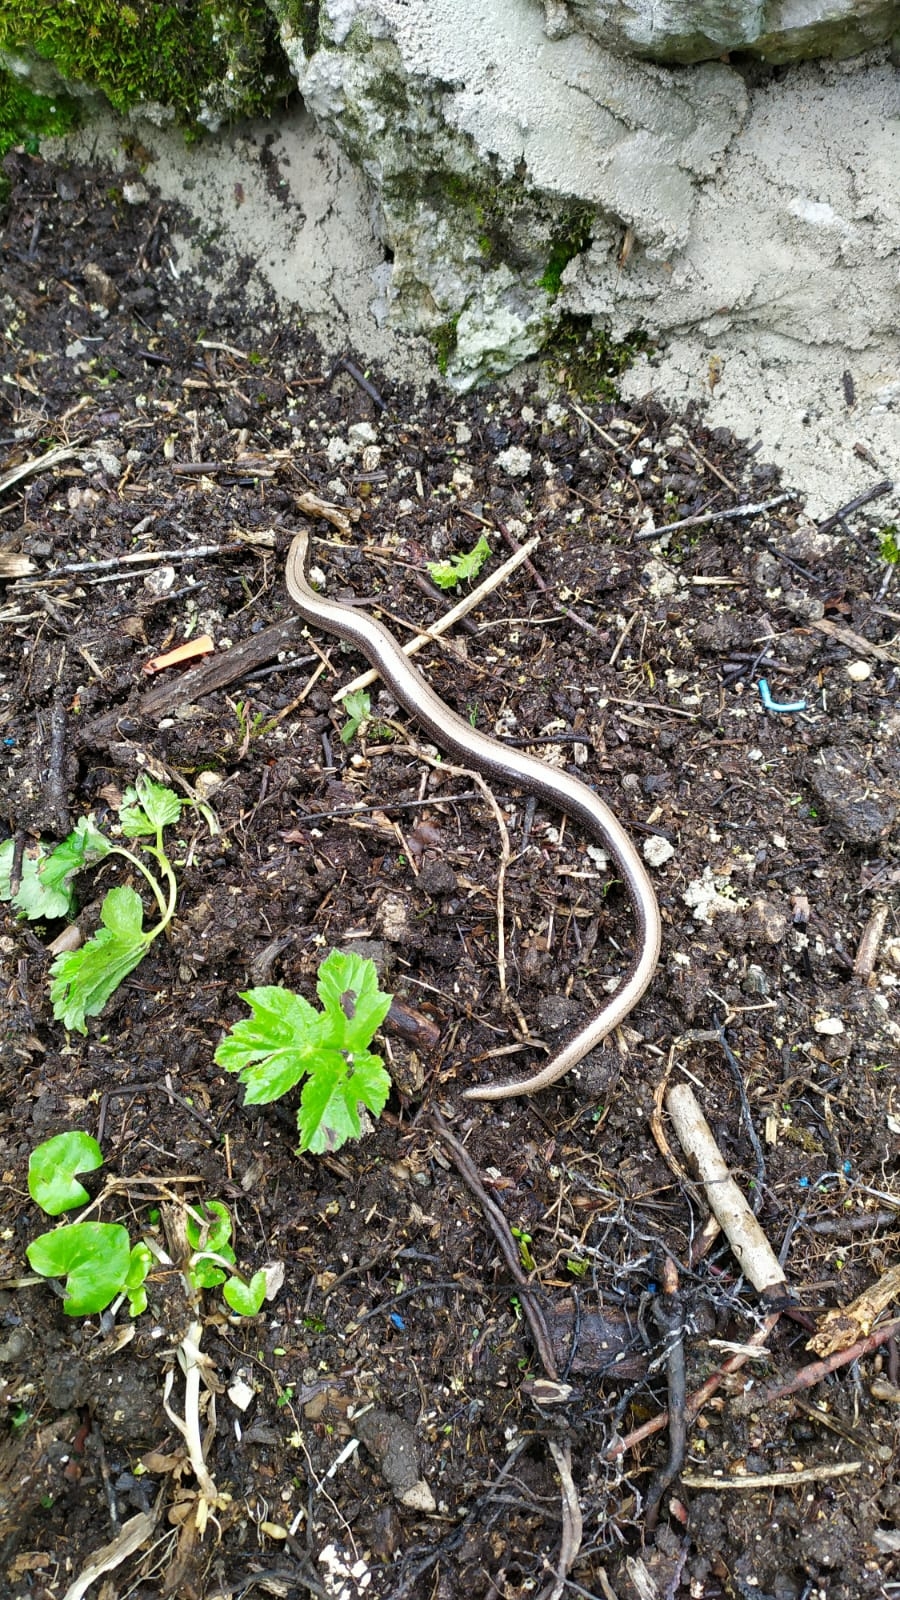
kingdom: Animalia
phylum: Chordata
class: Squamata
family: Anguidae
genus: Anguis
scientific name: Anguis fragilis
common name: Slow worm
